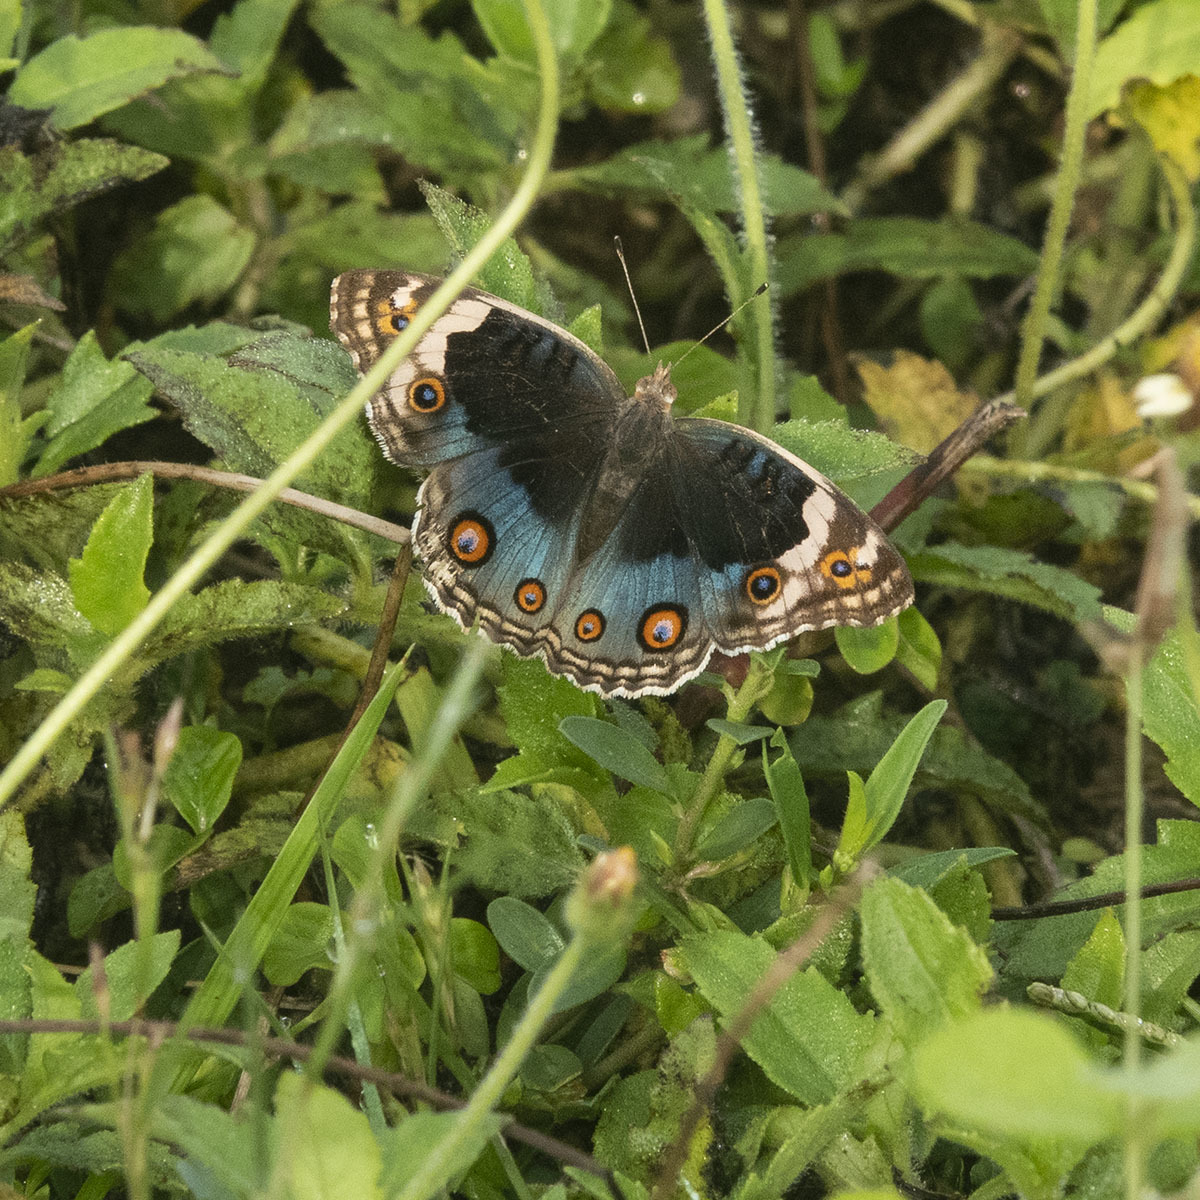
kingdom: Animalia
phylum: Arthropoda
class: Insecta
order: Lepidoptera
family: Nymphalidae
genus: Junonia
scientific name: Junonia orithya
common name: Blue pansy
